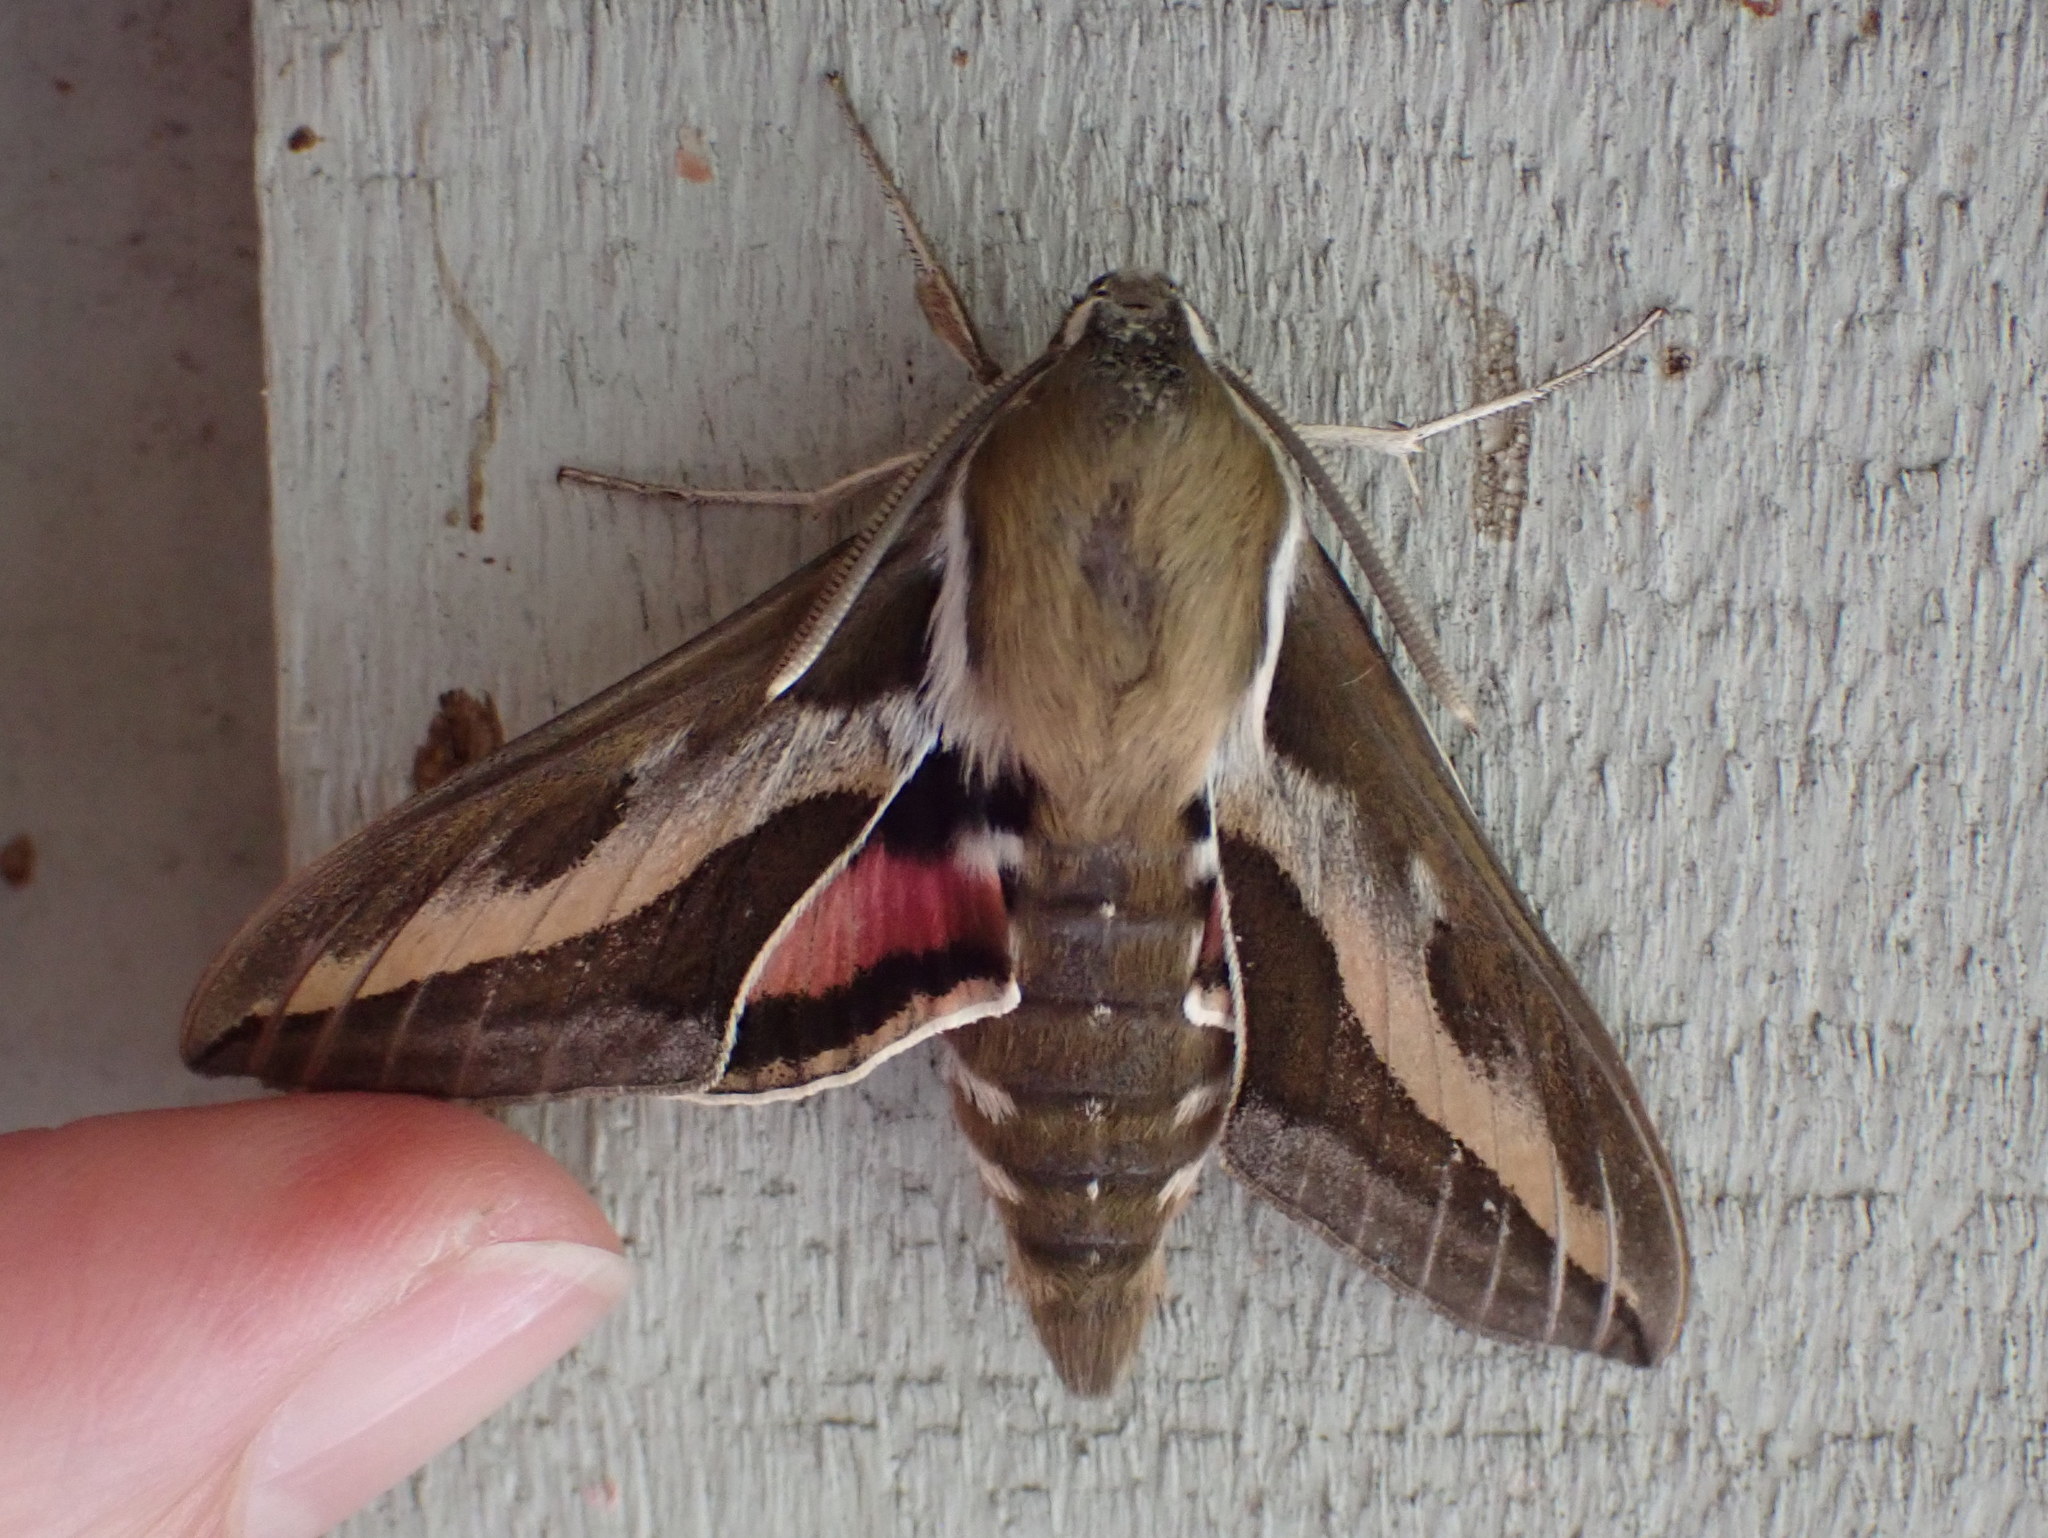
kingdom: Animalia
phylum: Arthropoda
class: Insecta
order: Lepidoptera
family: Sphingidae
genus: Hyles
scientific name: Hyles gallii
